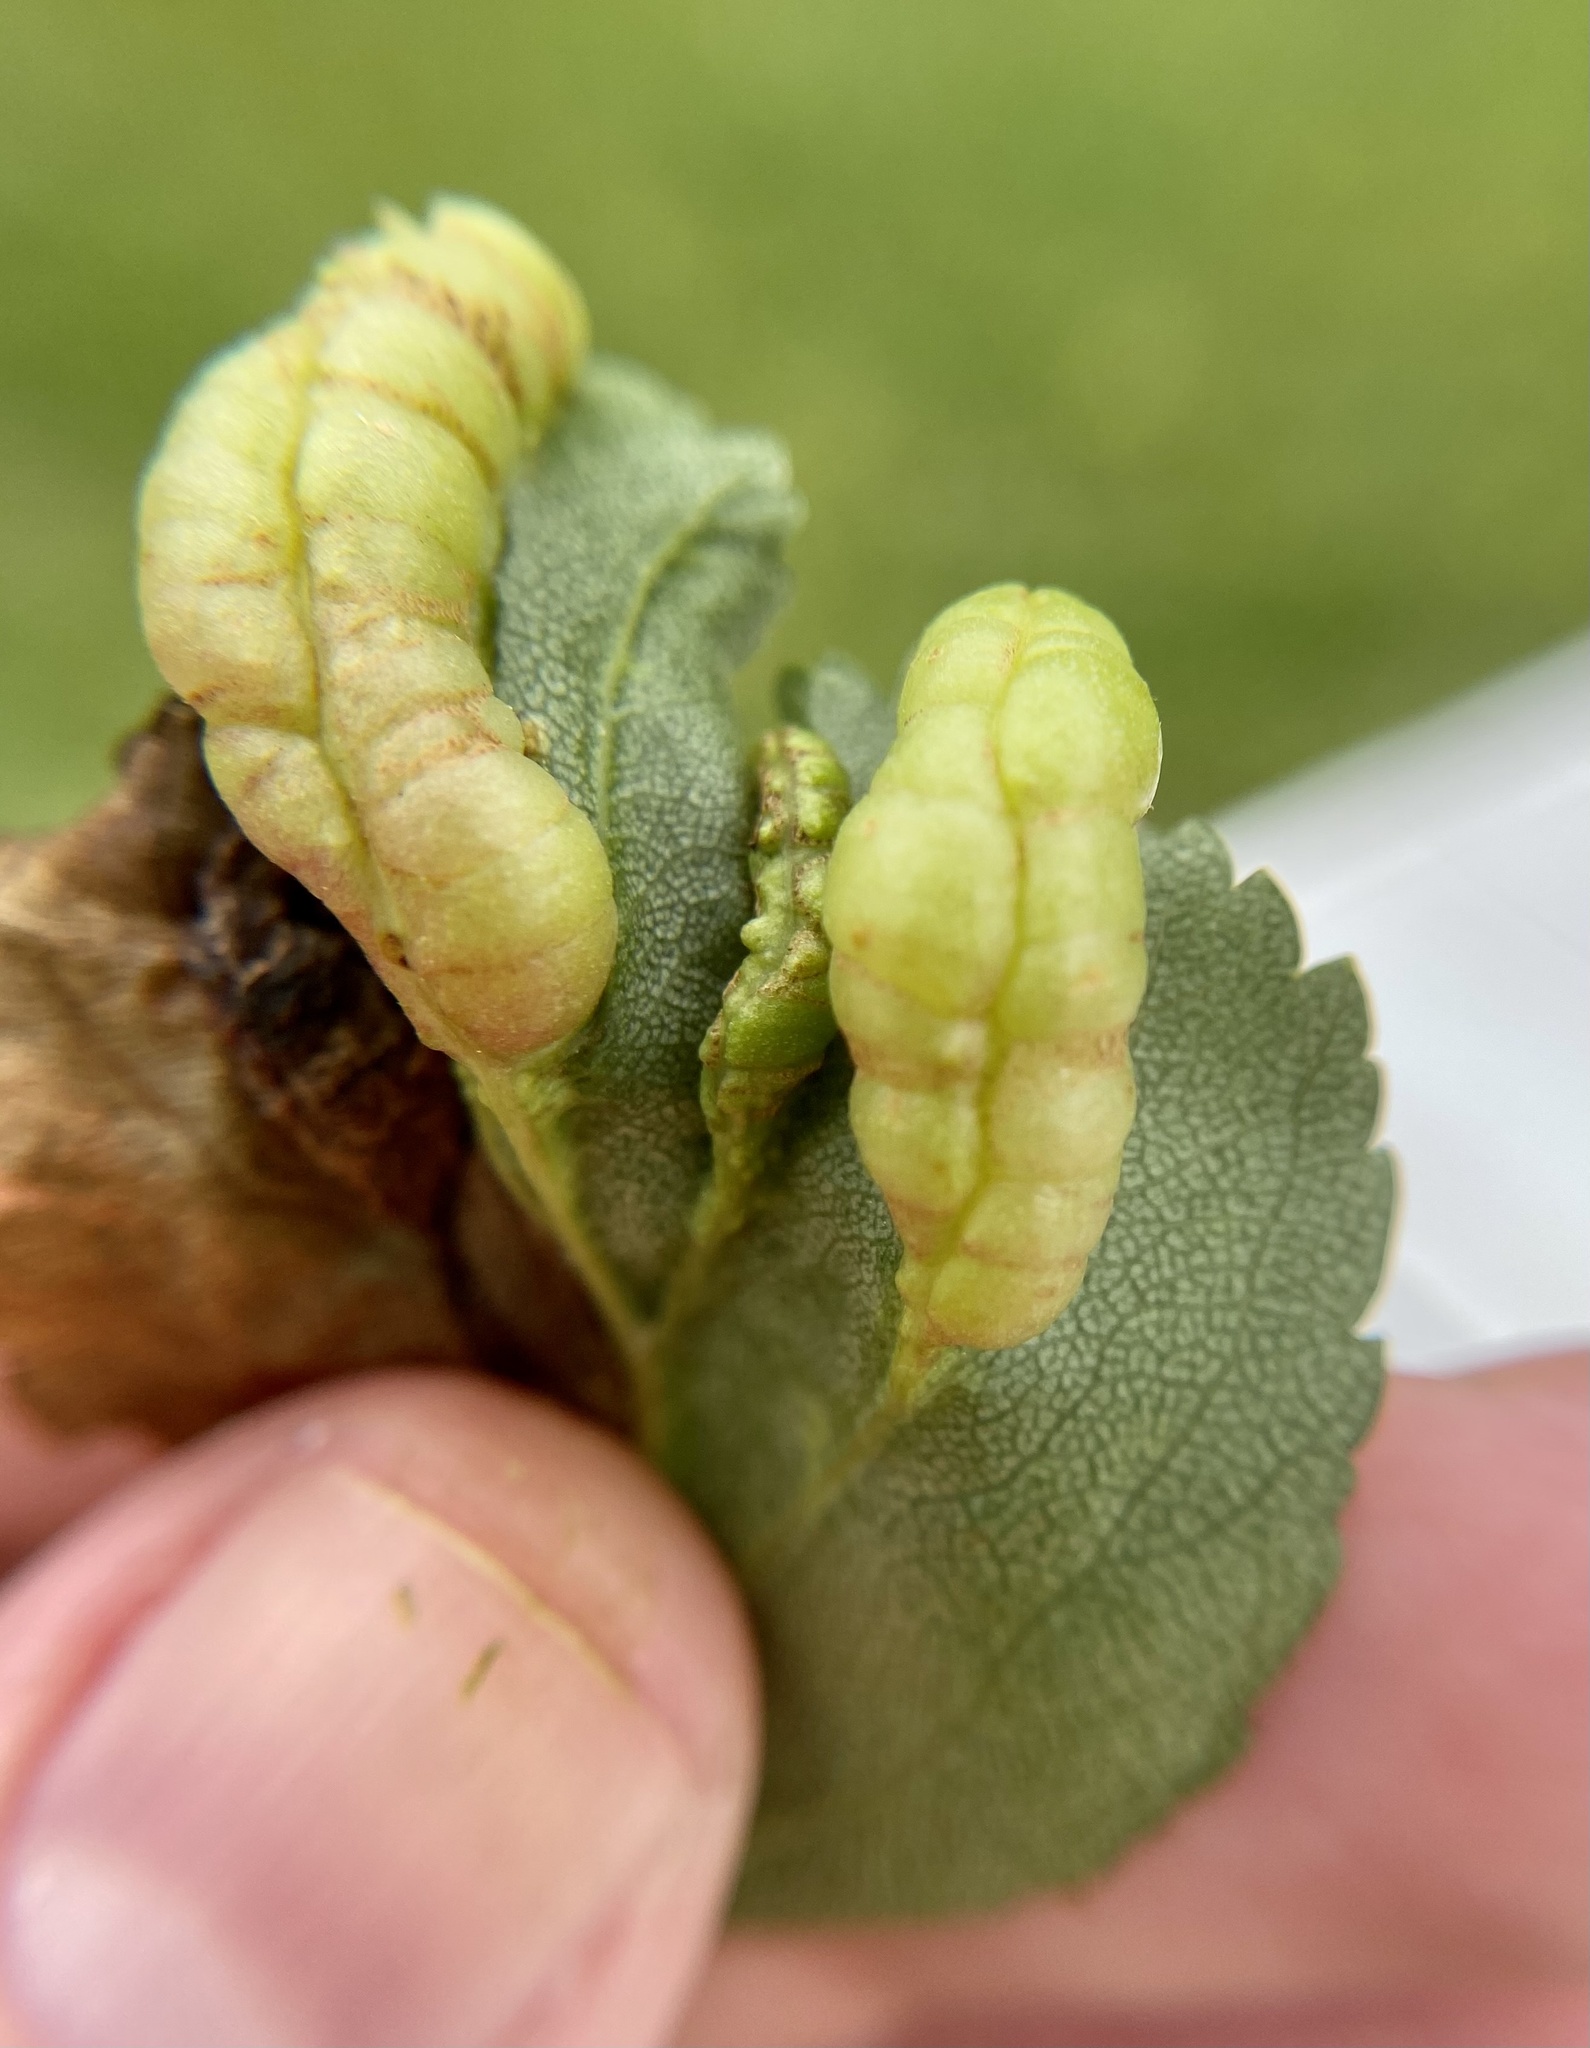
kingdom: Animalia
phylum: Arthropoda
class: Insecta
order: Diptera
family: Cecidomyiidae
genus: Blaesodiplosis
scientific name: Blaesodiplosis venae
